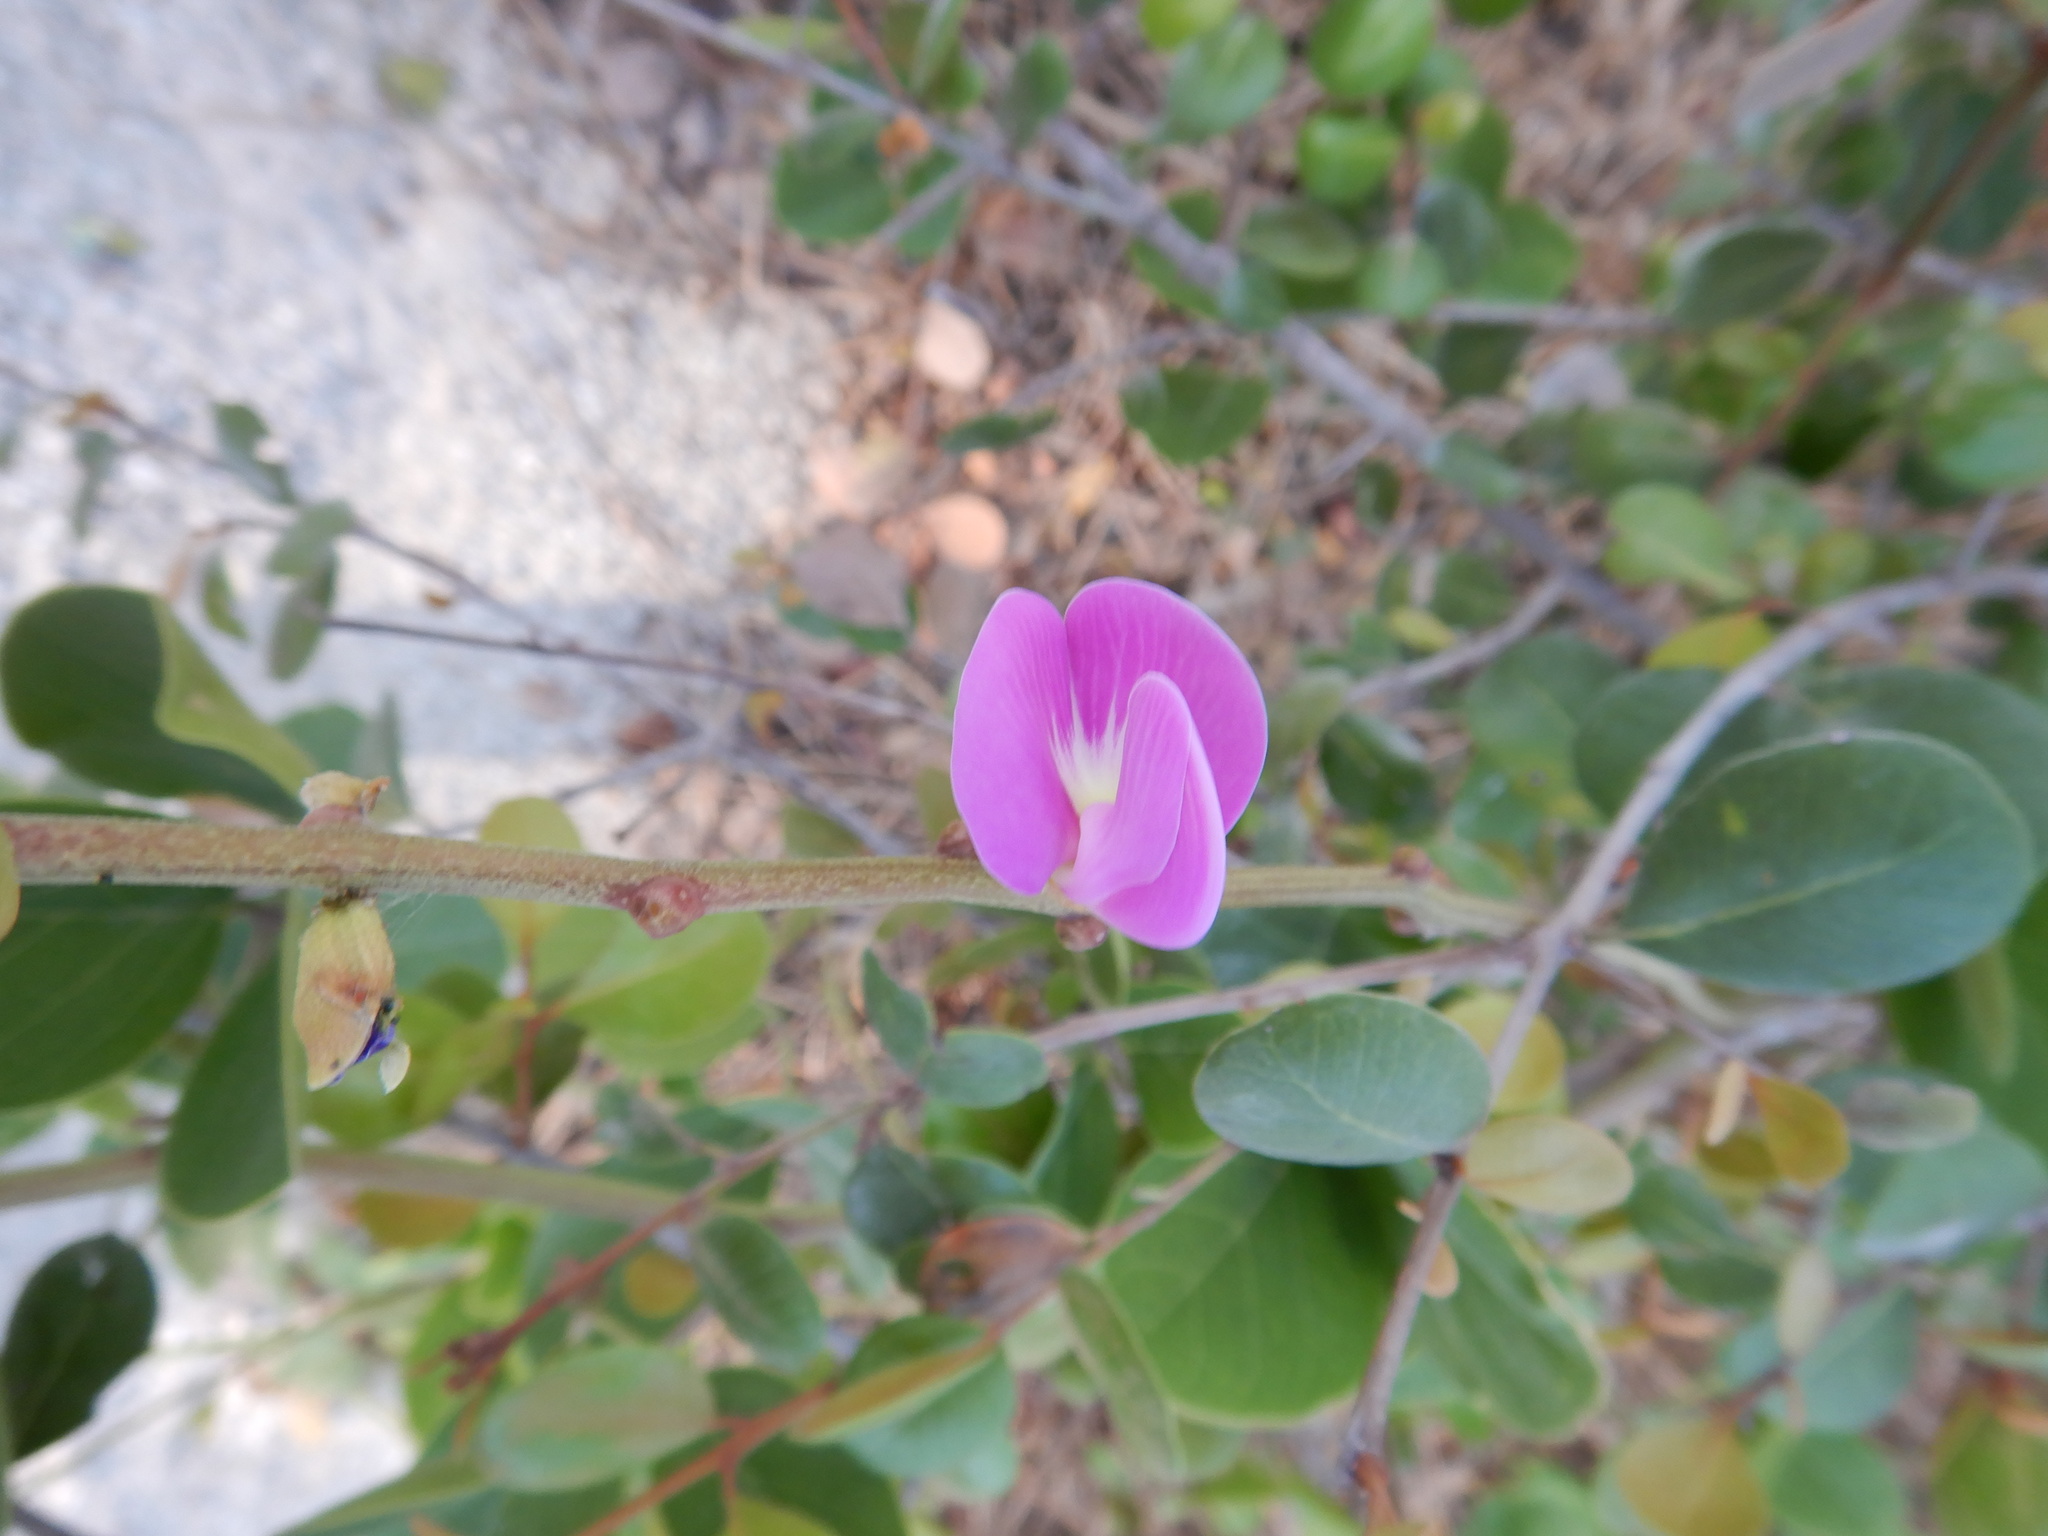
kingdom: Plantae
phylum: Tracheophyta
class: Magnoliopsida
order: Fabales
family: Fabaceae
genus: Canavalia
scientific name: Canavalia rosea
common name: Beach-bean
